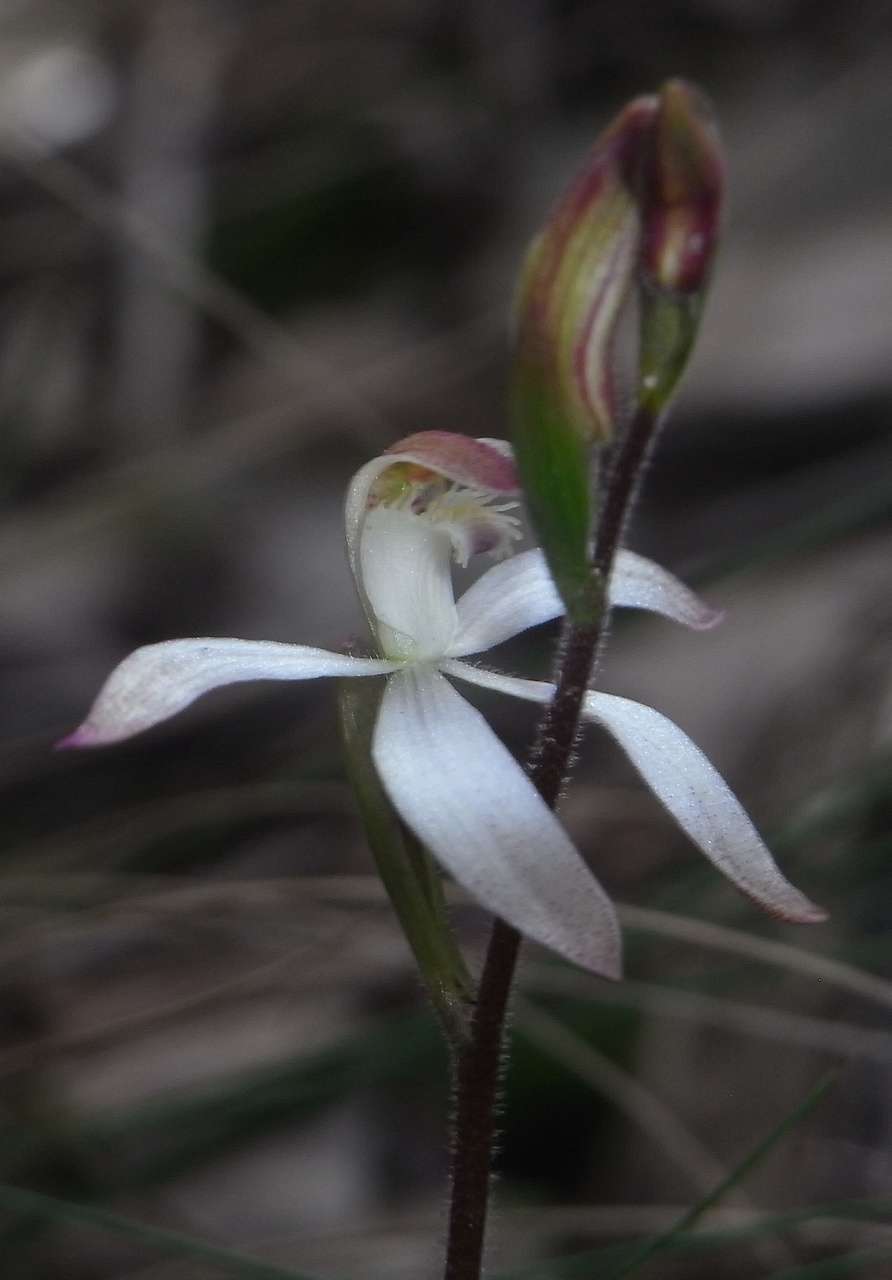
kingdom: Plantae
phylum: Tracheophyta
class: Liliopsida
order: Asparagales
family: Orchidaceae
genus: Caladenia
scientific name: Caladenia dimorpha
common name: Spicy caps
